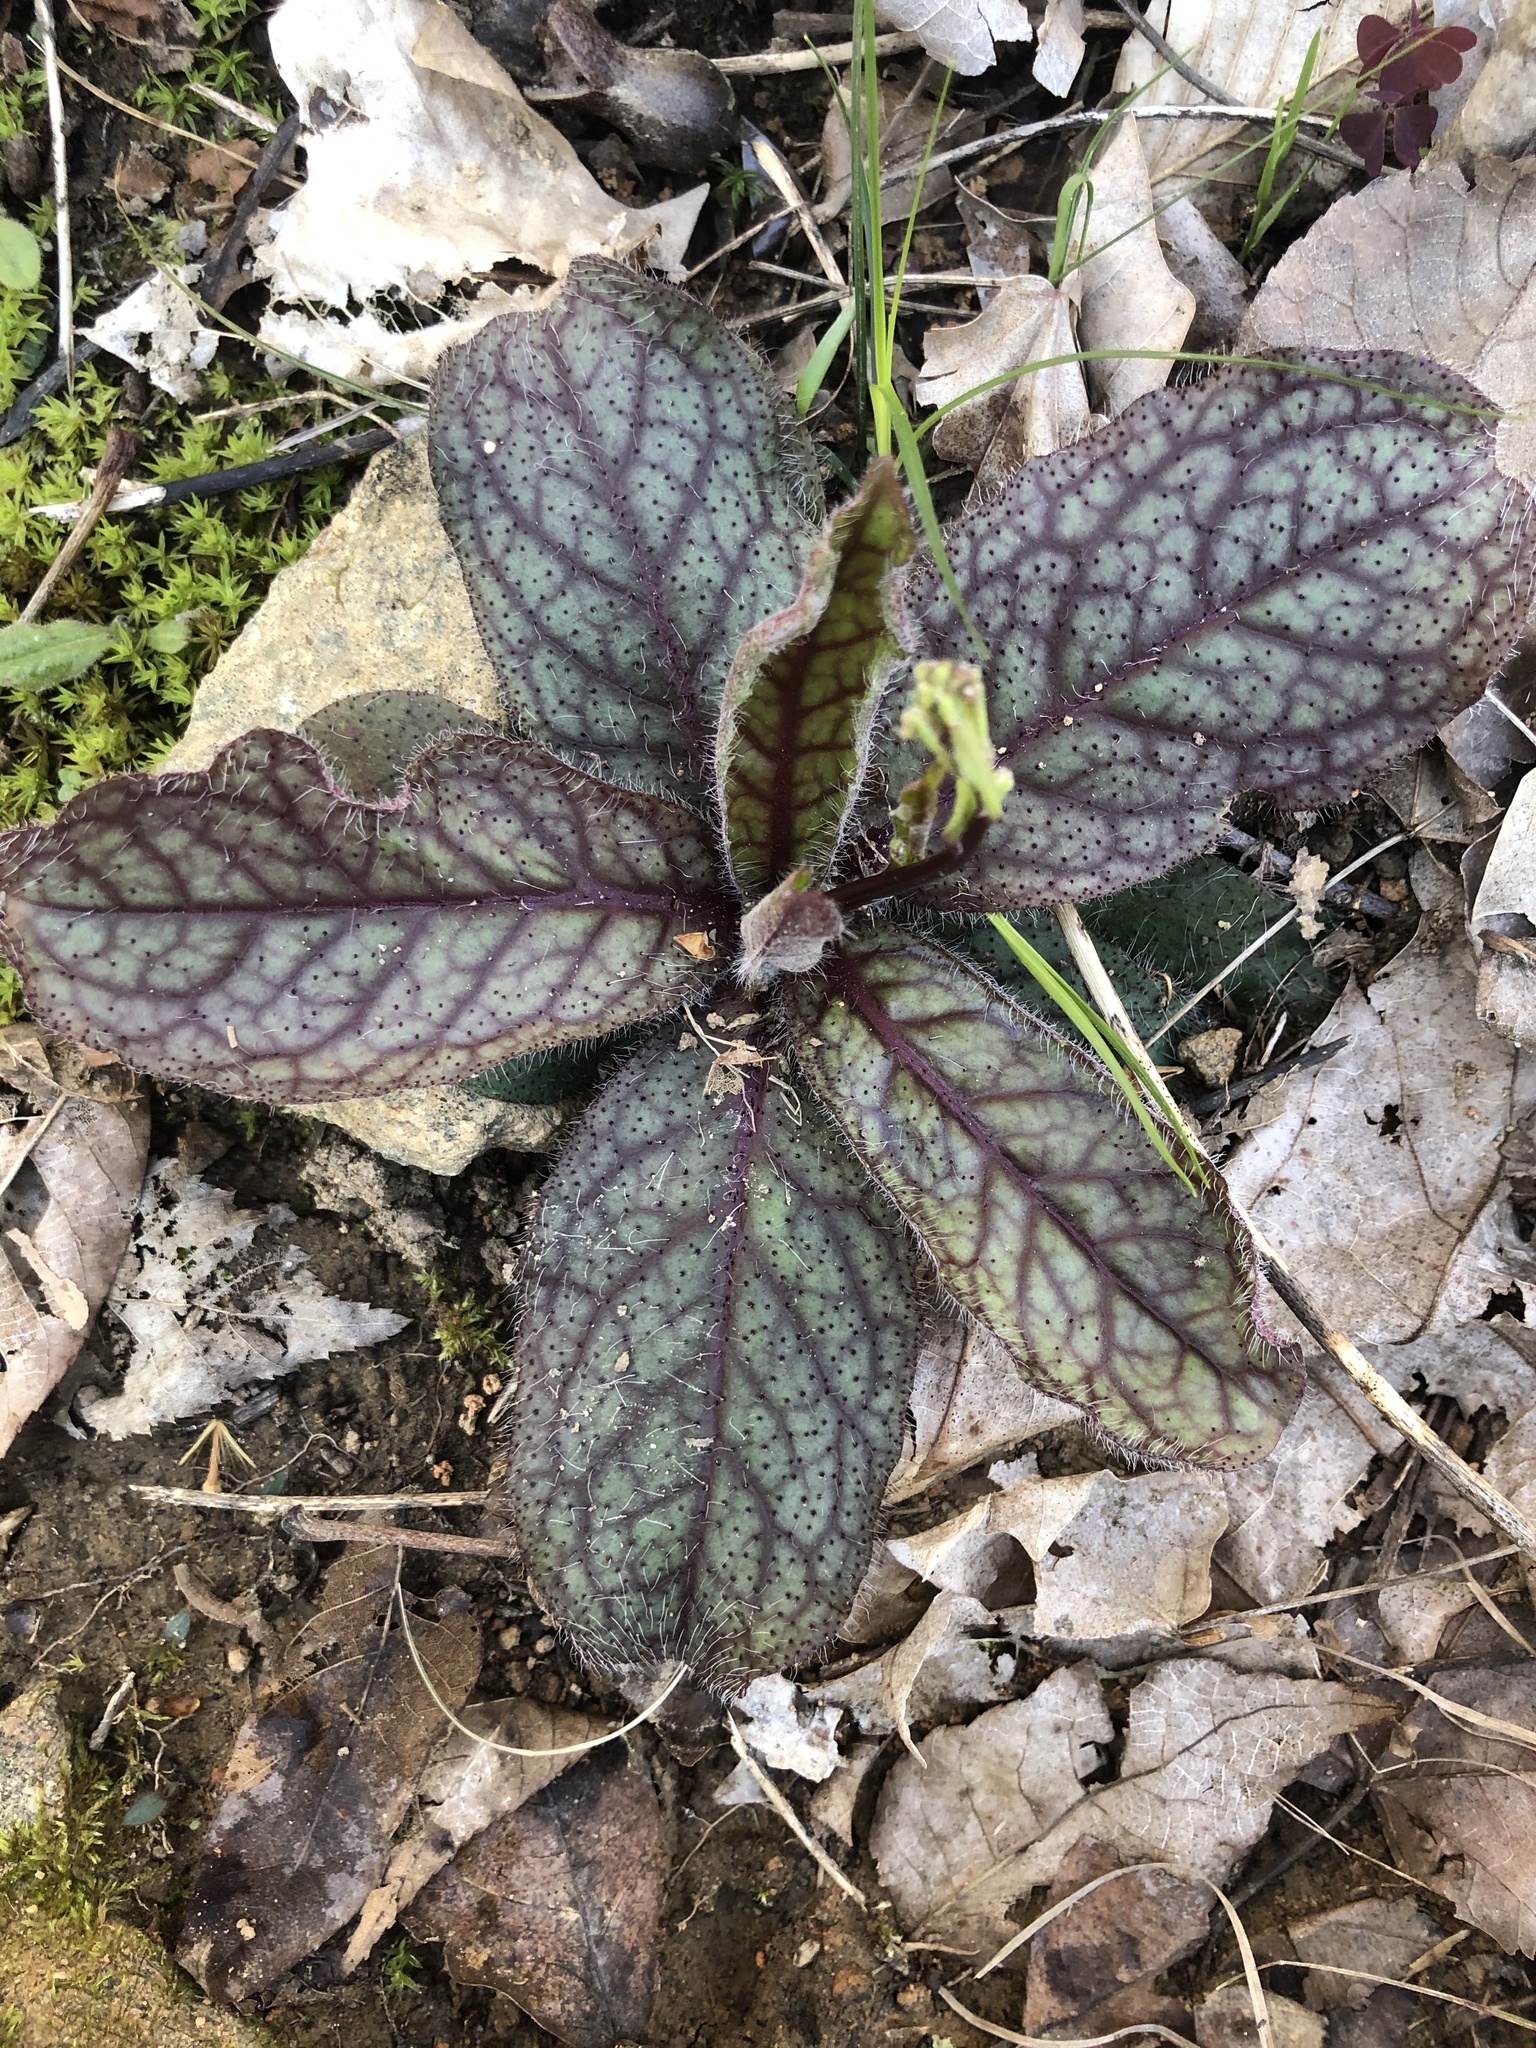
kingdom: Plantae
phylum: Tracheophyta
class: Magnoliopsida
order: Asterales
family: Asteraceae
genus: Hieracium
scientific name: Hieracium venosum
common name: Rattlesnake hawkweed
